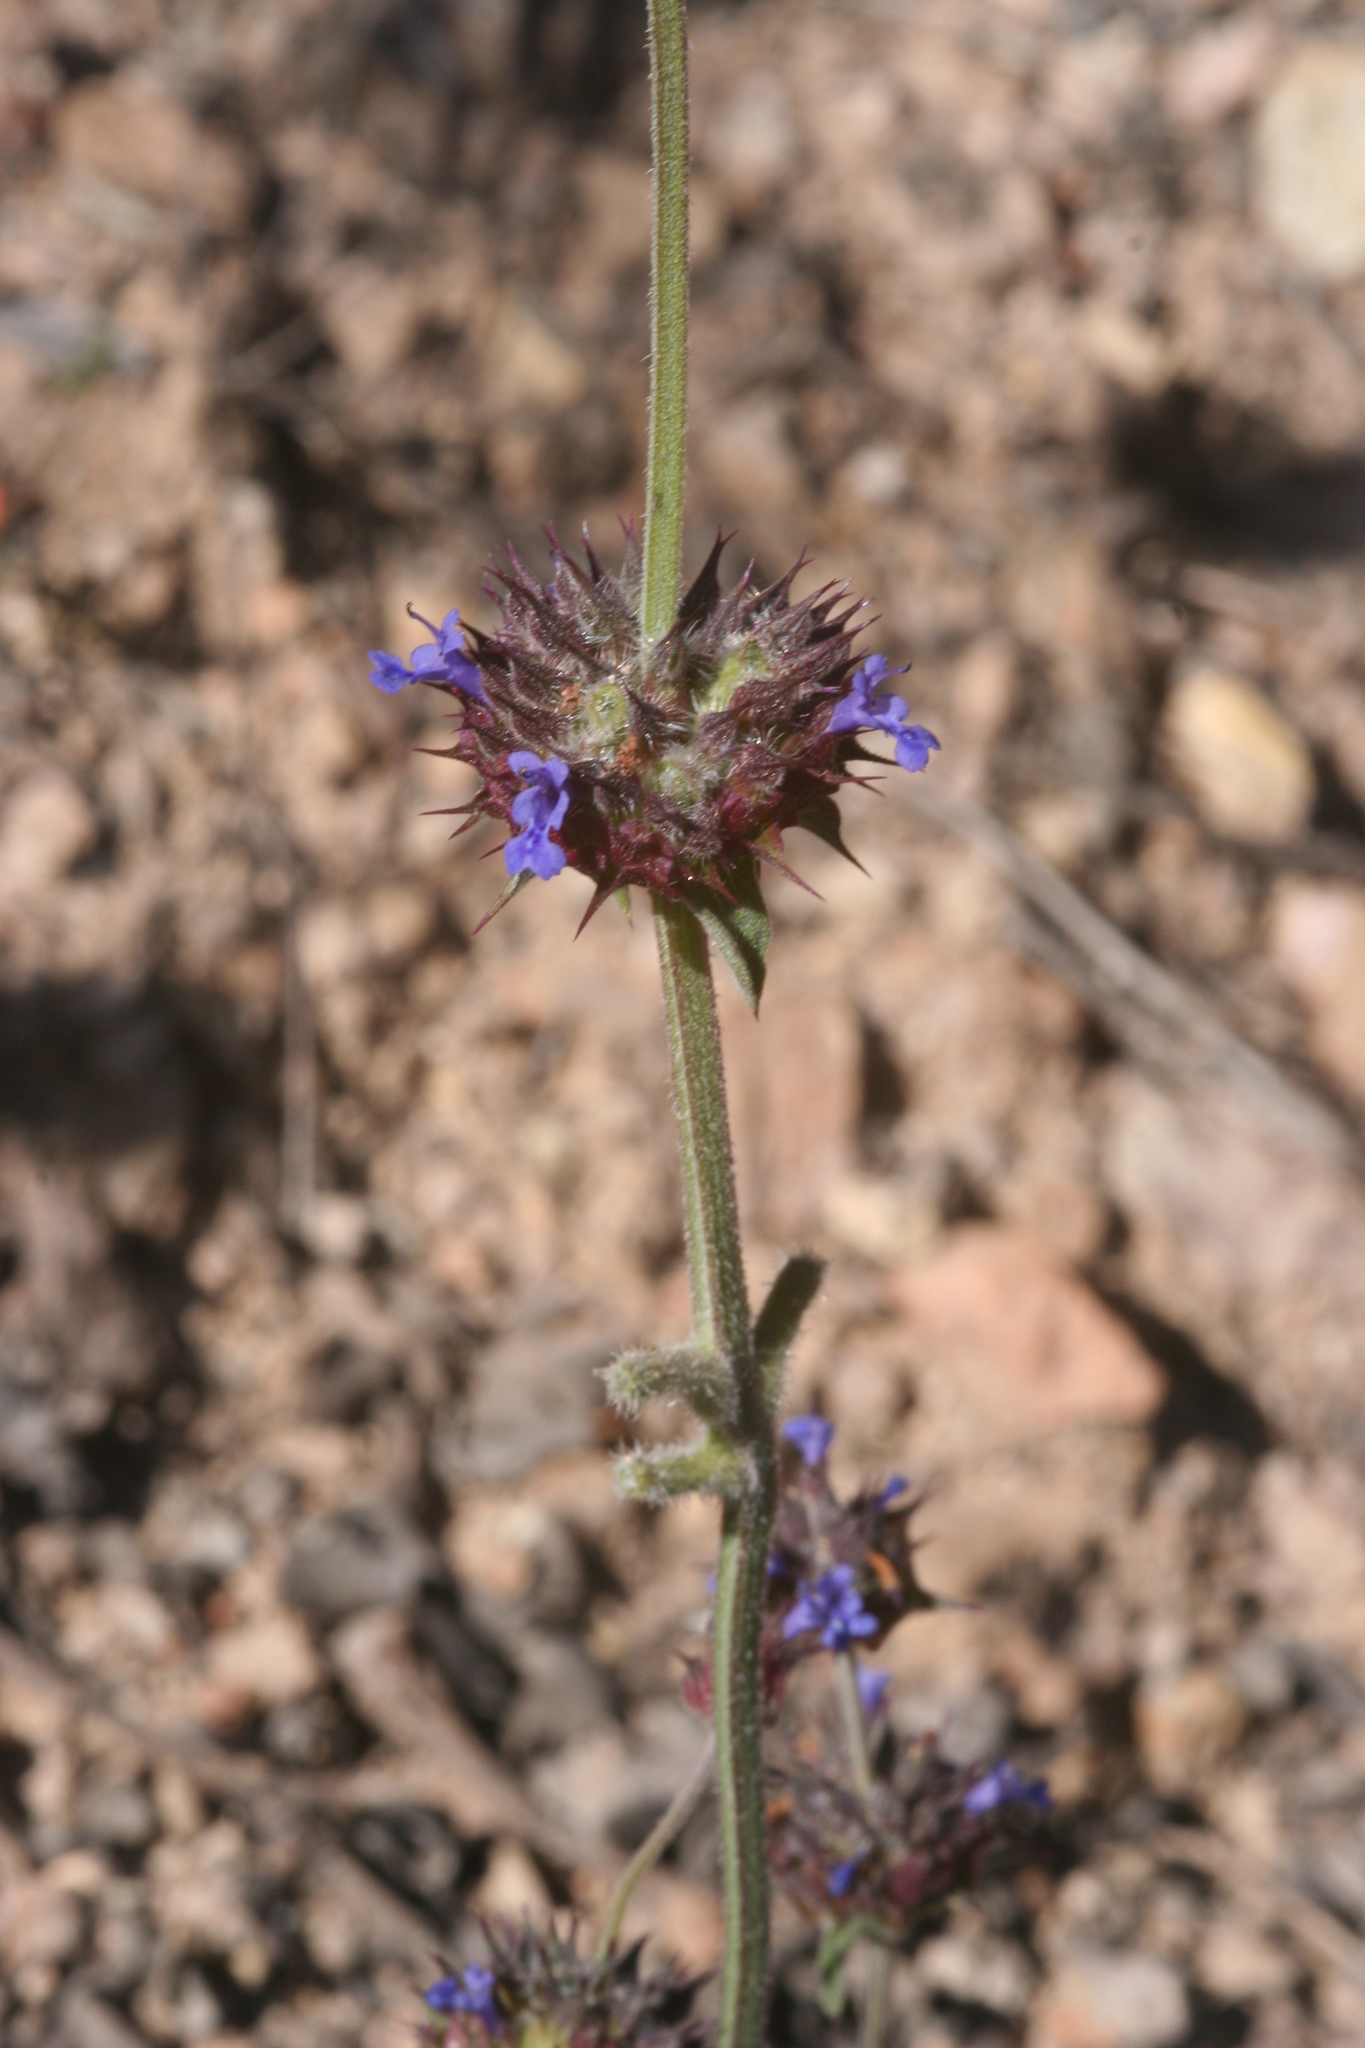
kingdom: Plantae
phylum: Tracheophyta
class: Magnoliopsida
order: Lamiales
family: Lamiaceae
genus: Salvia
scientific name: Salvia columbariae
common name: Chia
